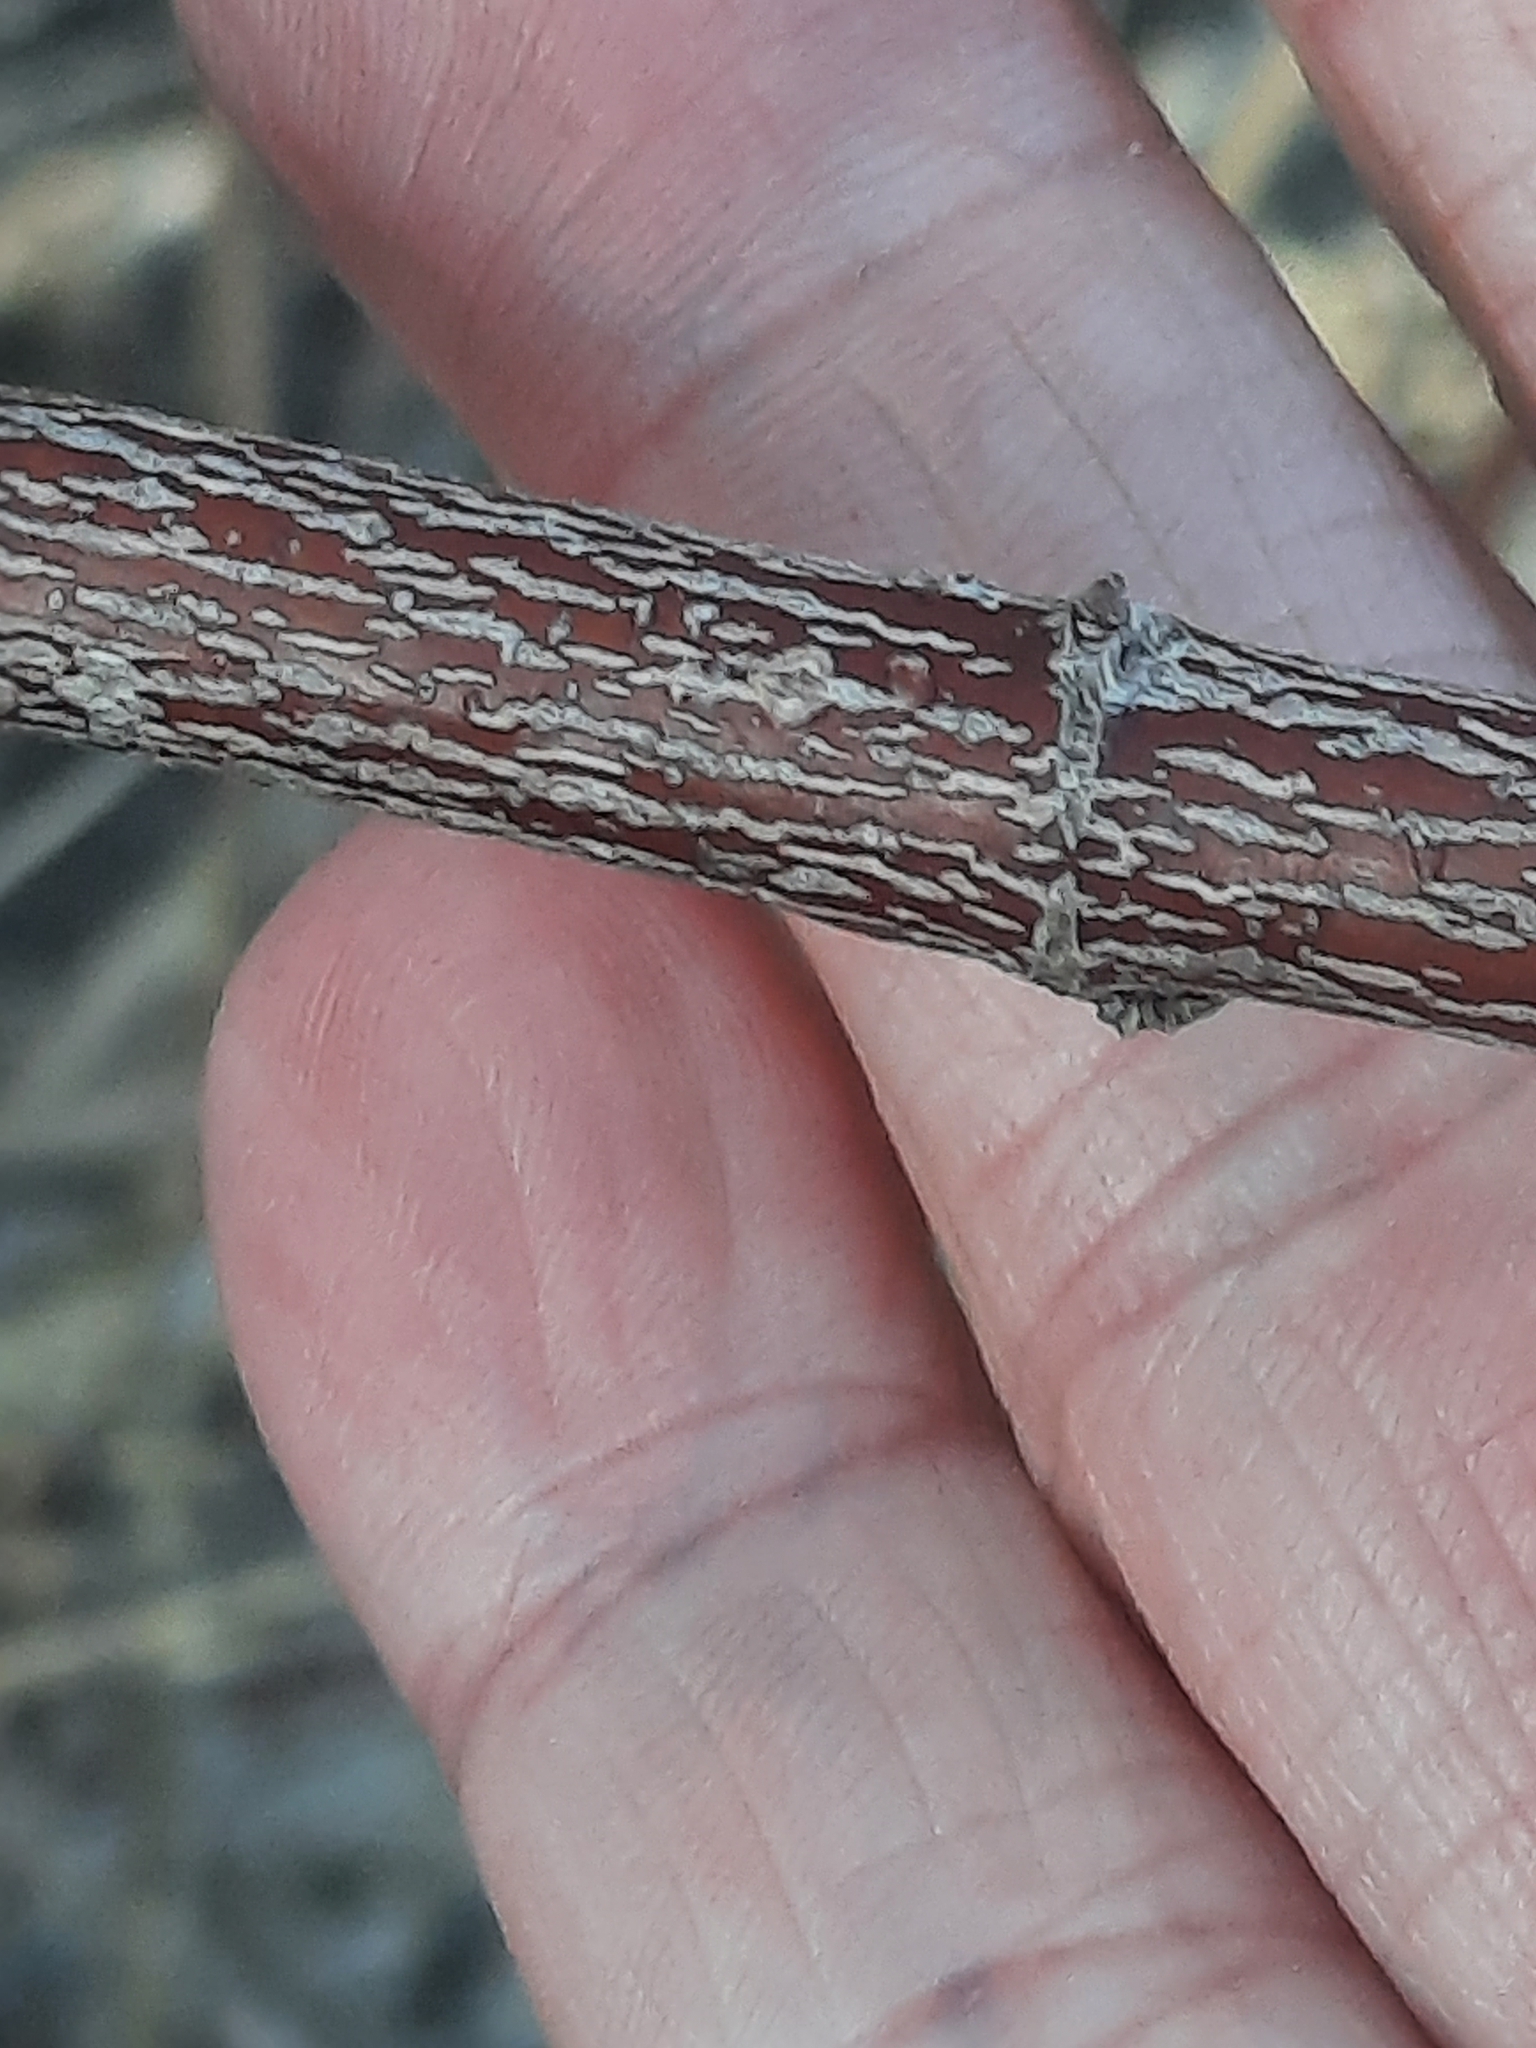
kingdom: Plantae
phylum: Tracheophyta
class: Magnoliopsida
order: Cornales
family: Cornaceae
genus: Cornus
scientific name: Cornus amomum
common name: Silky dogwood
